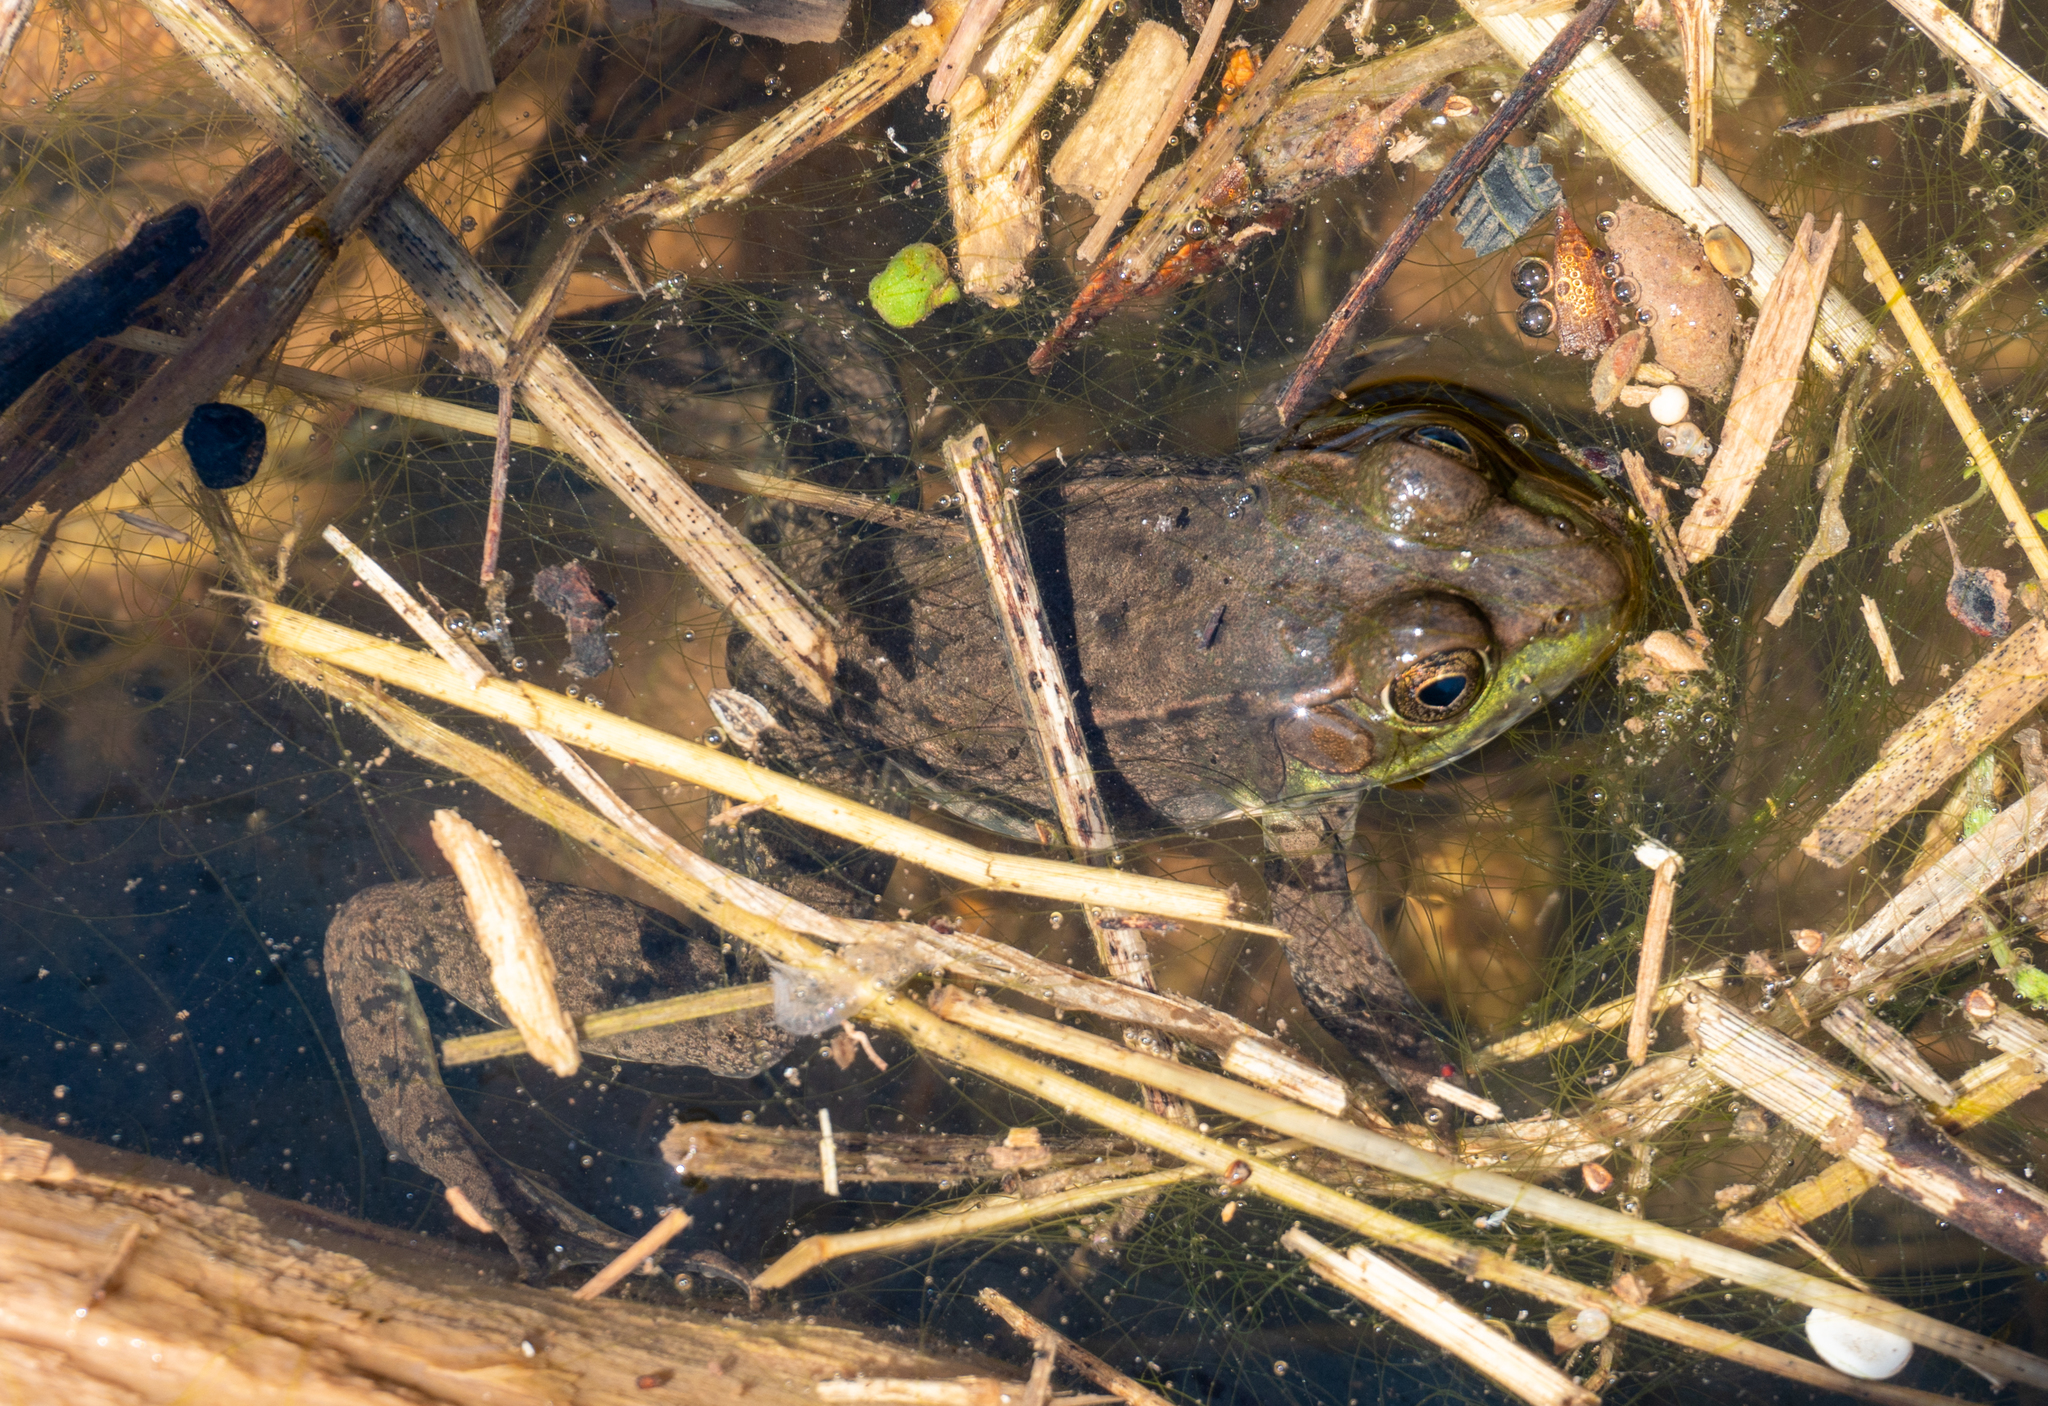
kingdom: Animalia
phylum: Chordata
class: Amphibia
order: Anura
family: Ranidae
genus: Lithobates
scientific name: Lithobates clamitans
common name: Green frog
